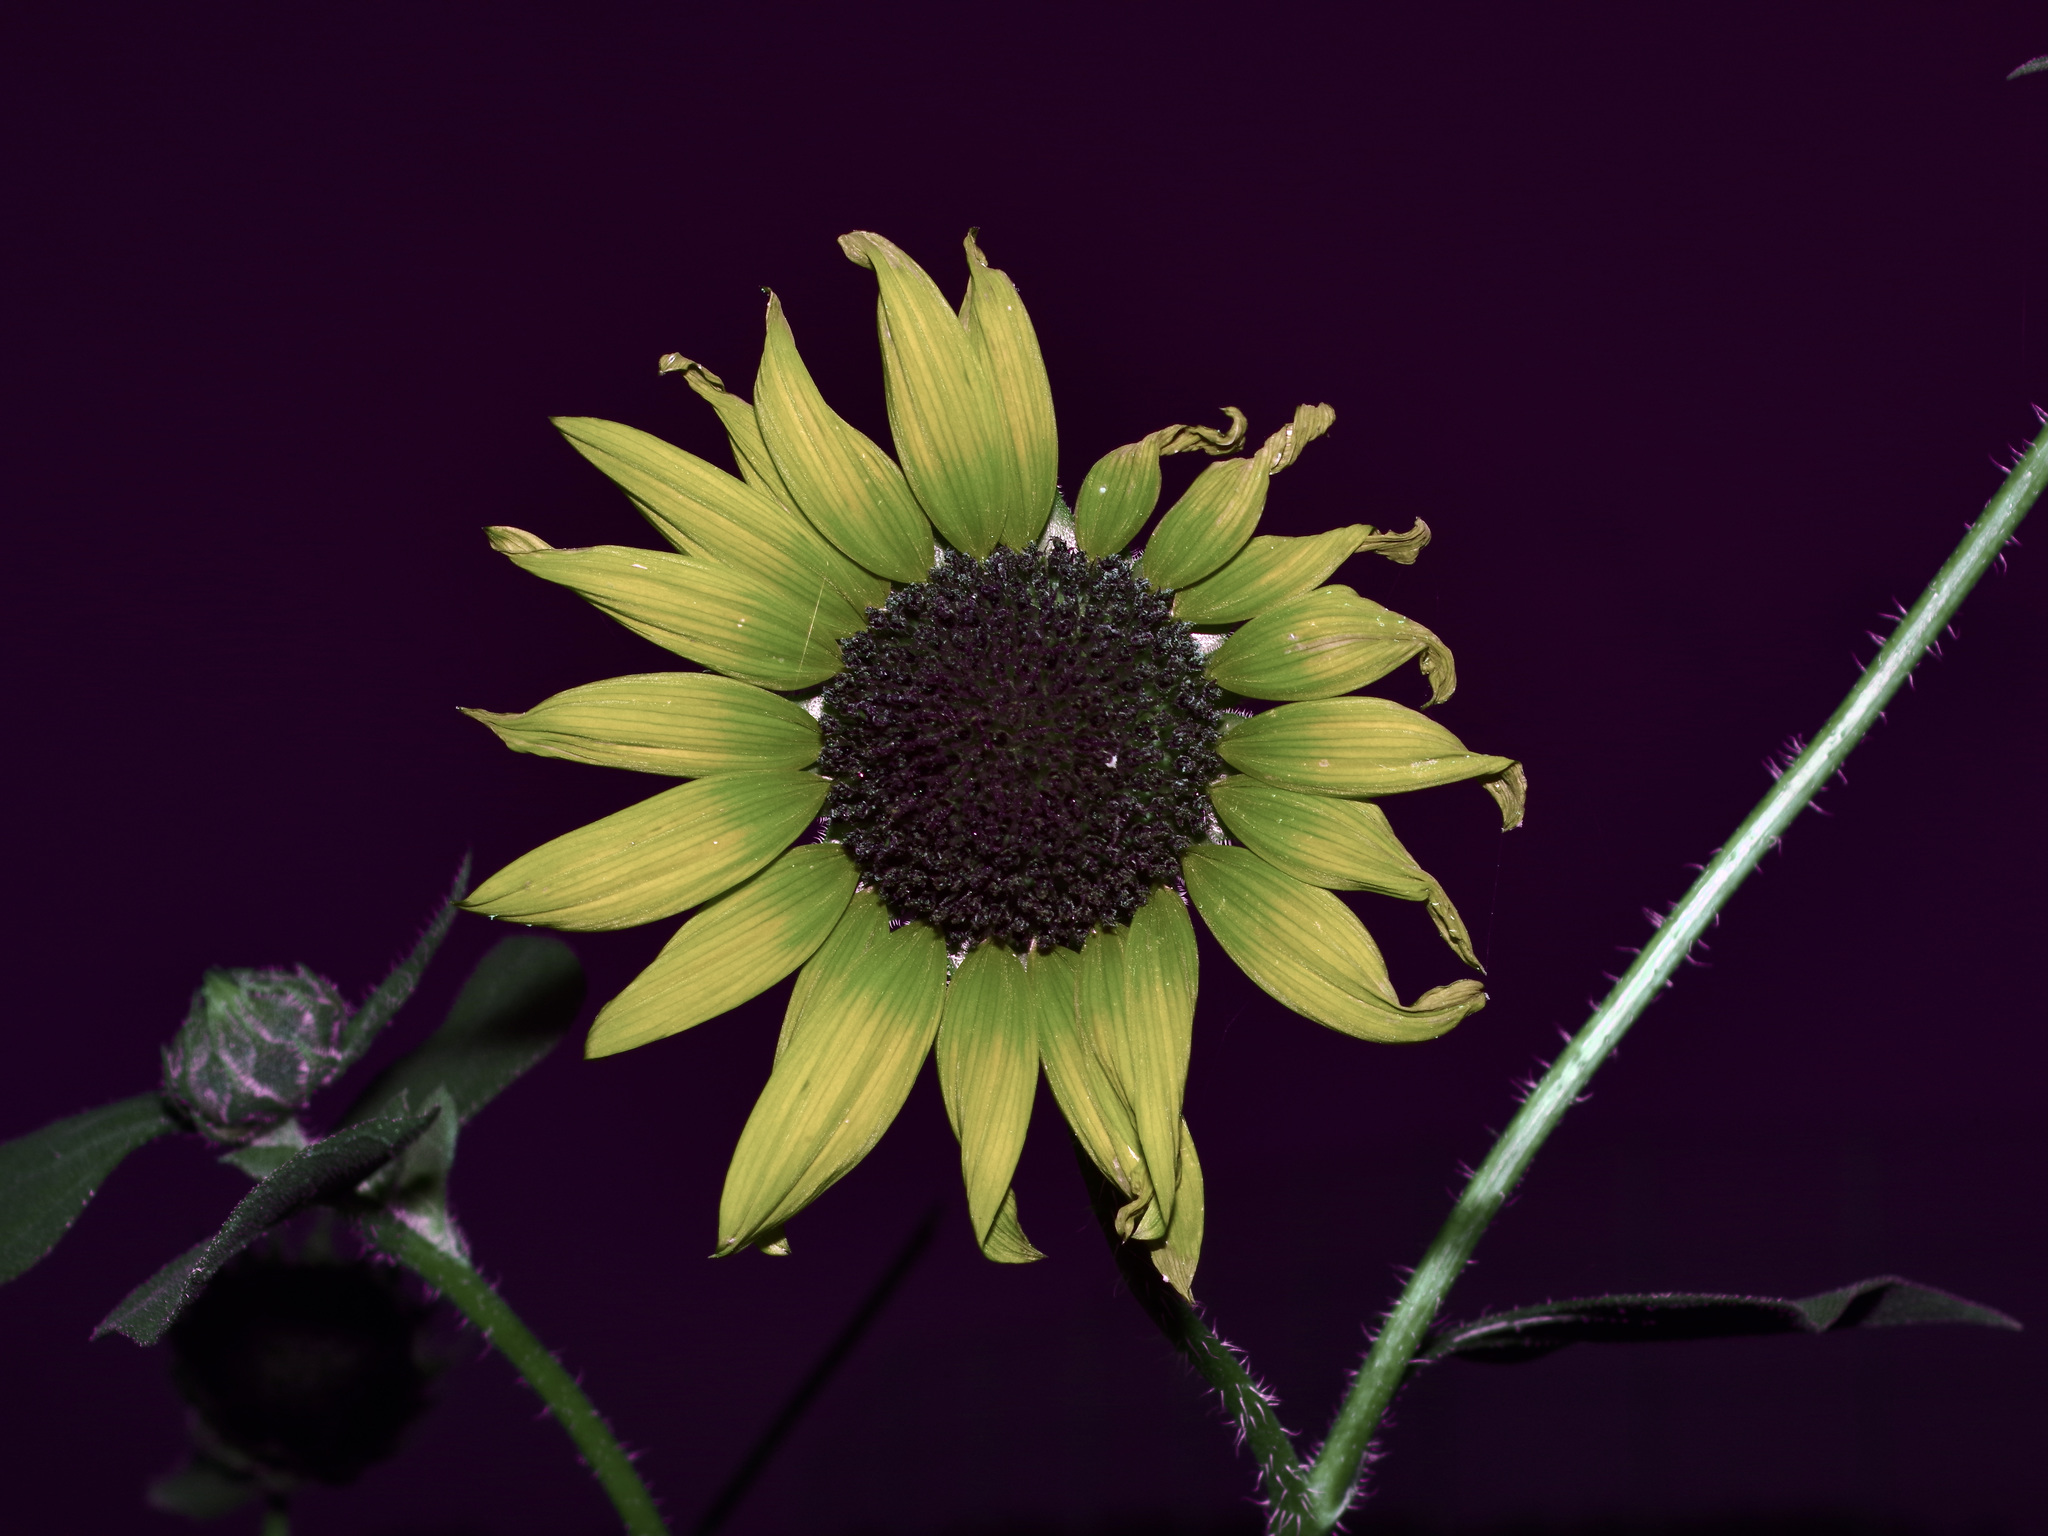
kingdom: Plantae
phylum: Tracheophyta
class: Magnoliopsida
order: Asterales
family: Asteraceae
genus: Helianthus
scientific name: Helianthus annuus
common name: Sunflower
